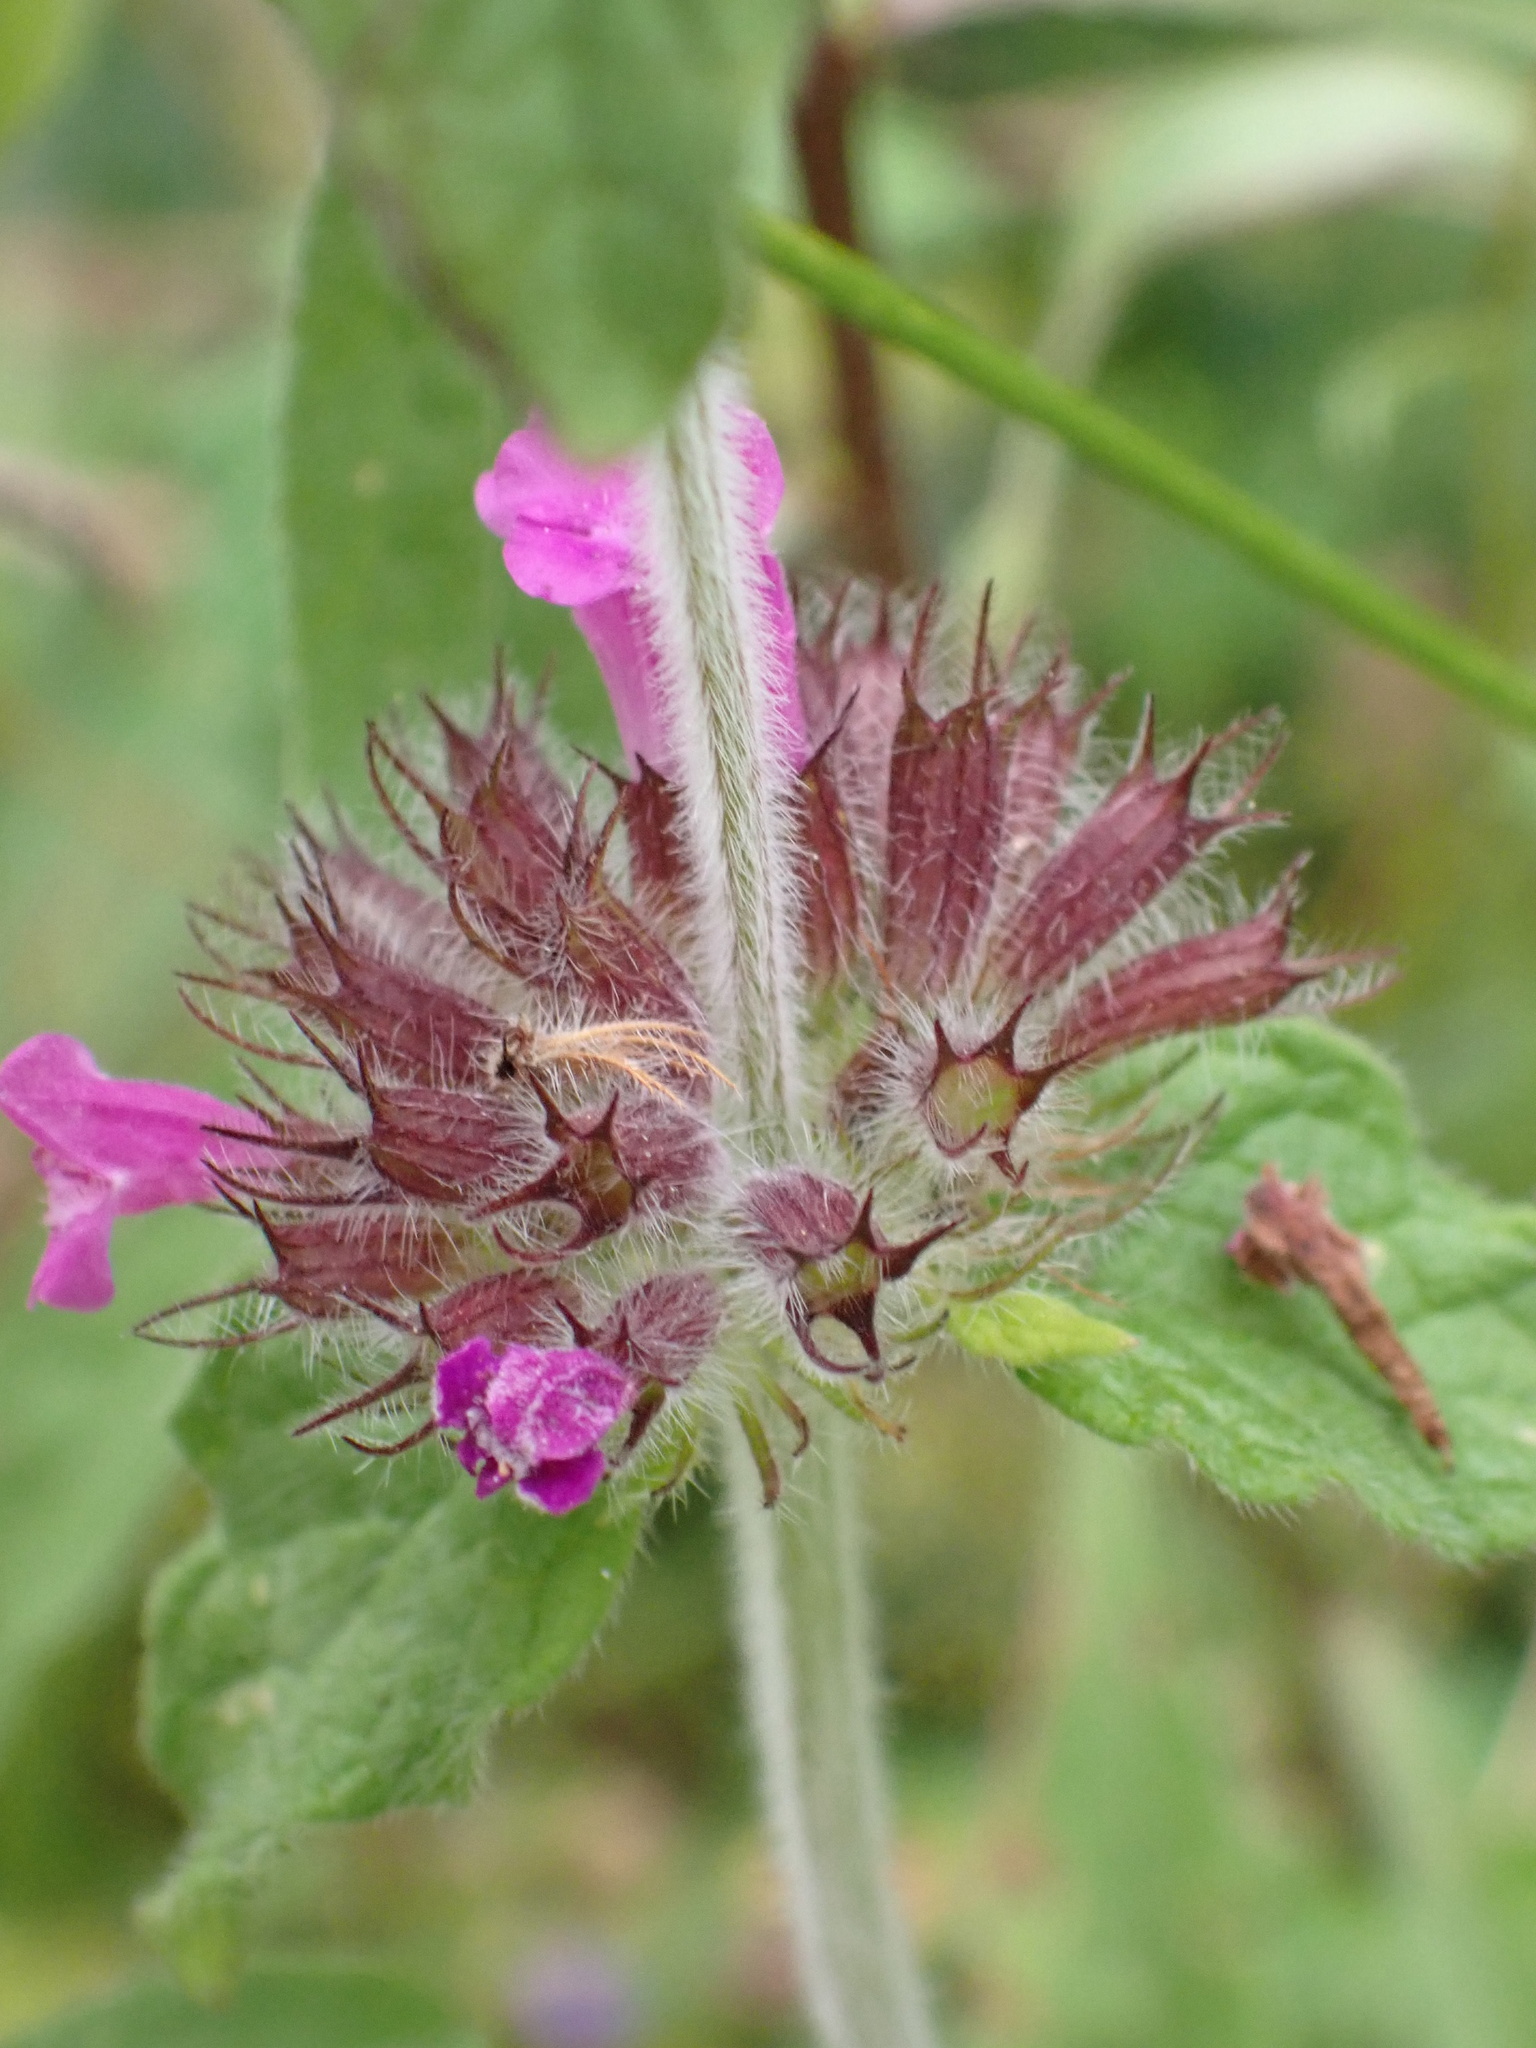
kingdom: Plantae
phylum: Tracheophyta
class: Magnoliopsida
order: Lamiales
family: Lamiaceae
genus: Clinopodium
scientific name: Clinopodium vulgare
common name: Wild basil
